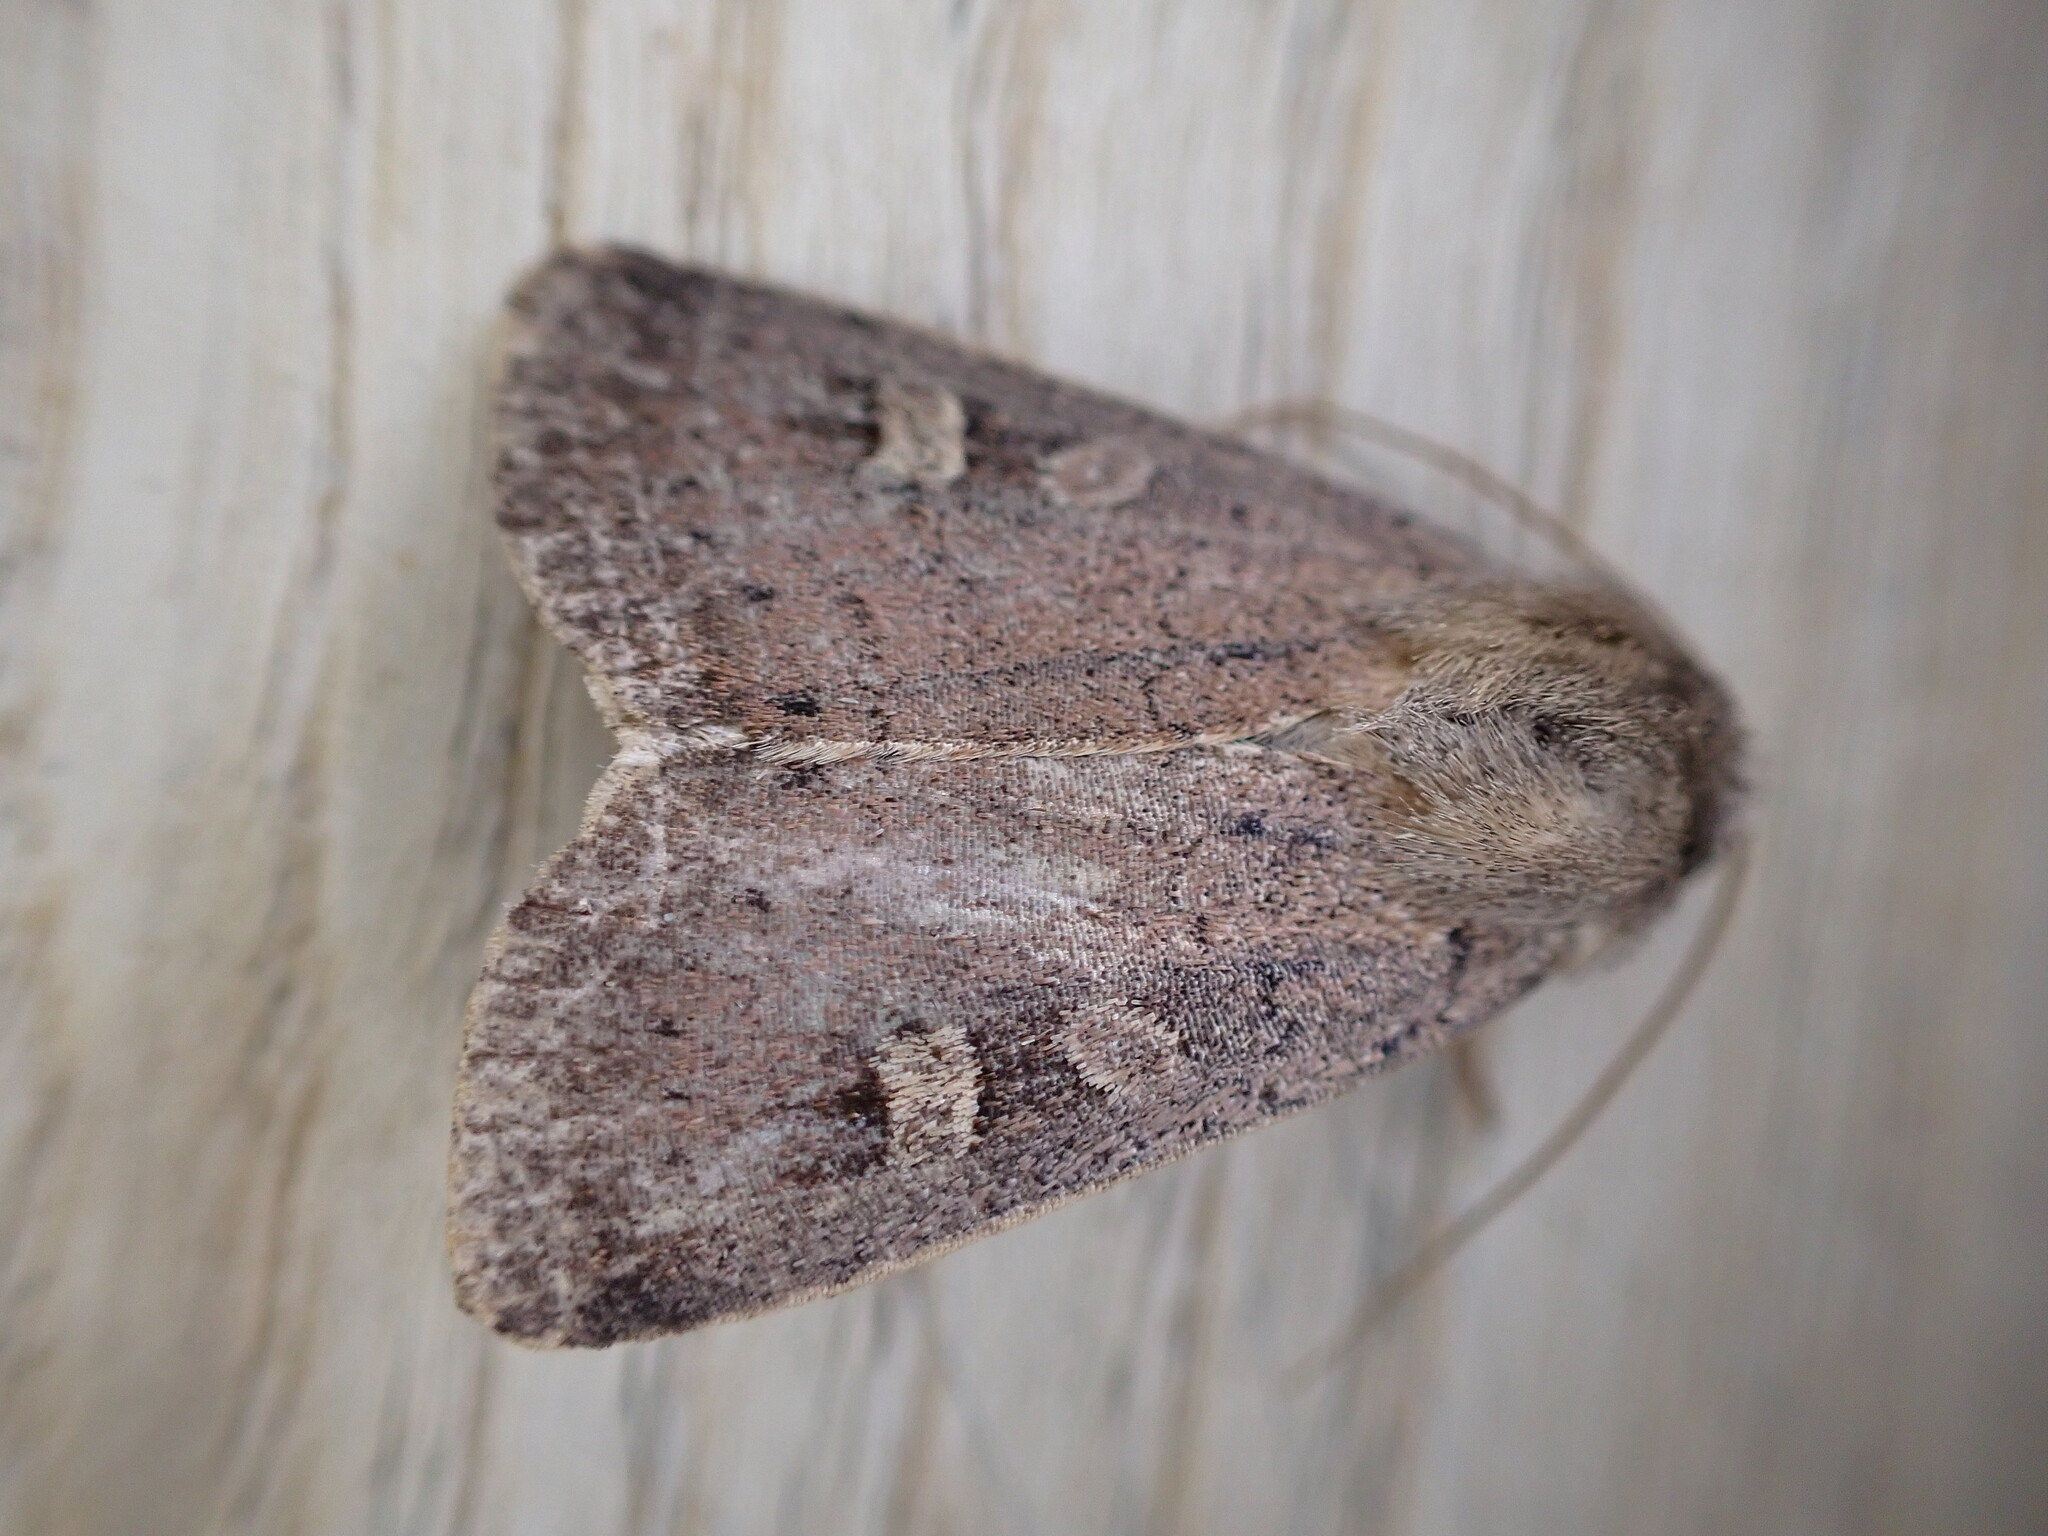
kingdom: Animalia
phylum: Arthropoda
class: Insecta
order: Lepidoptera
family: Noctuidae
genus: Xestia
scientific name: Xestia xanthographa
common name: Square-spot rustic
